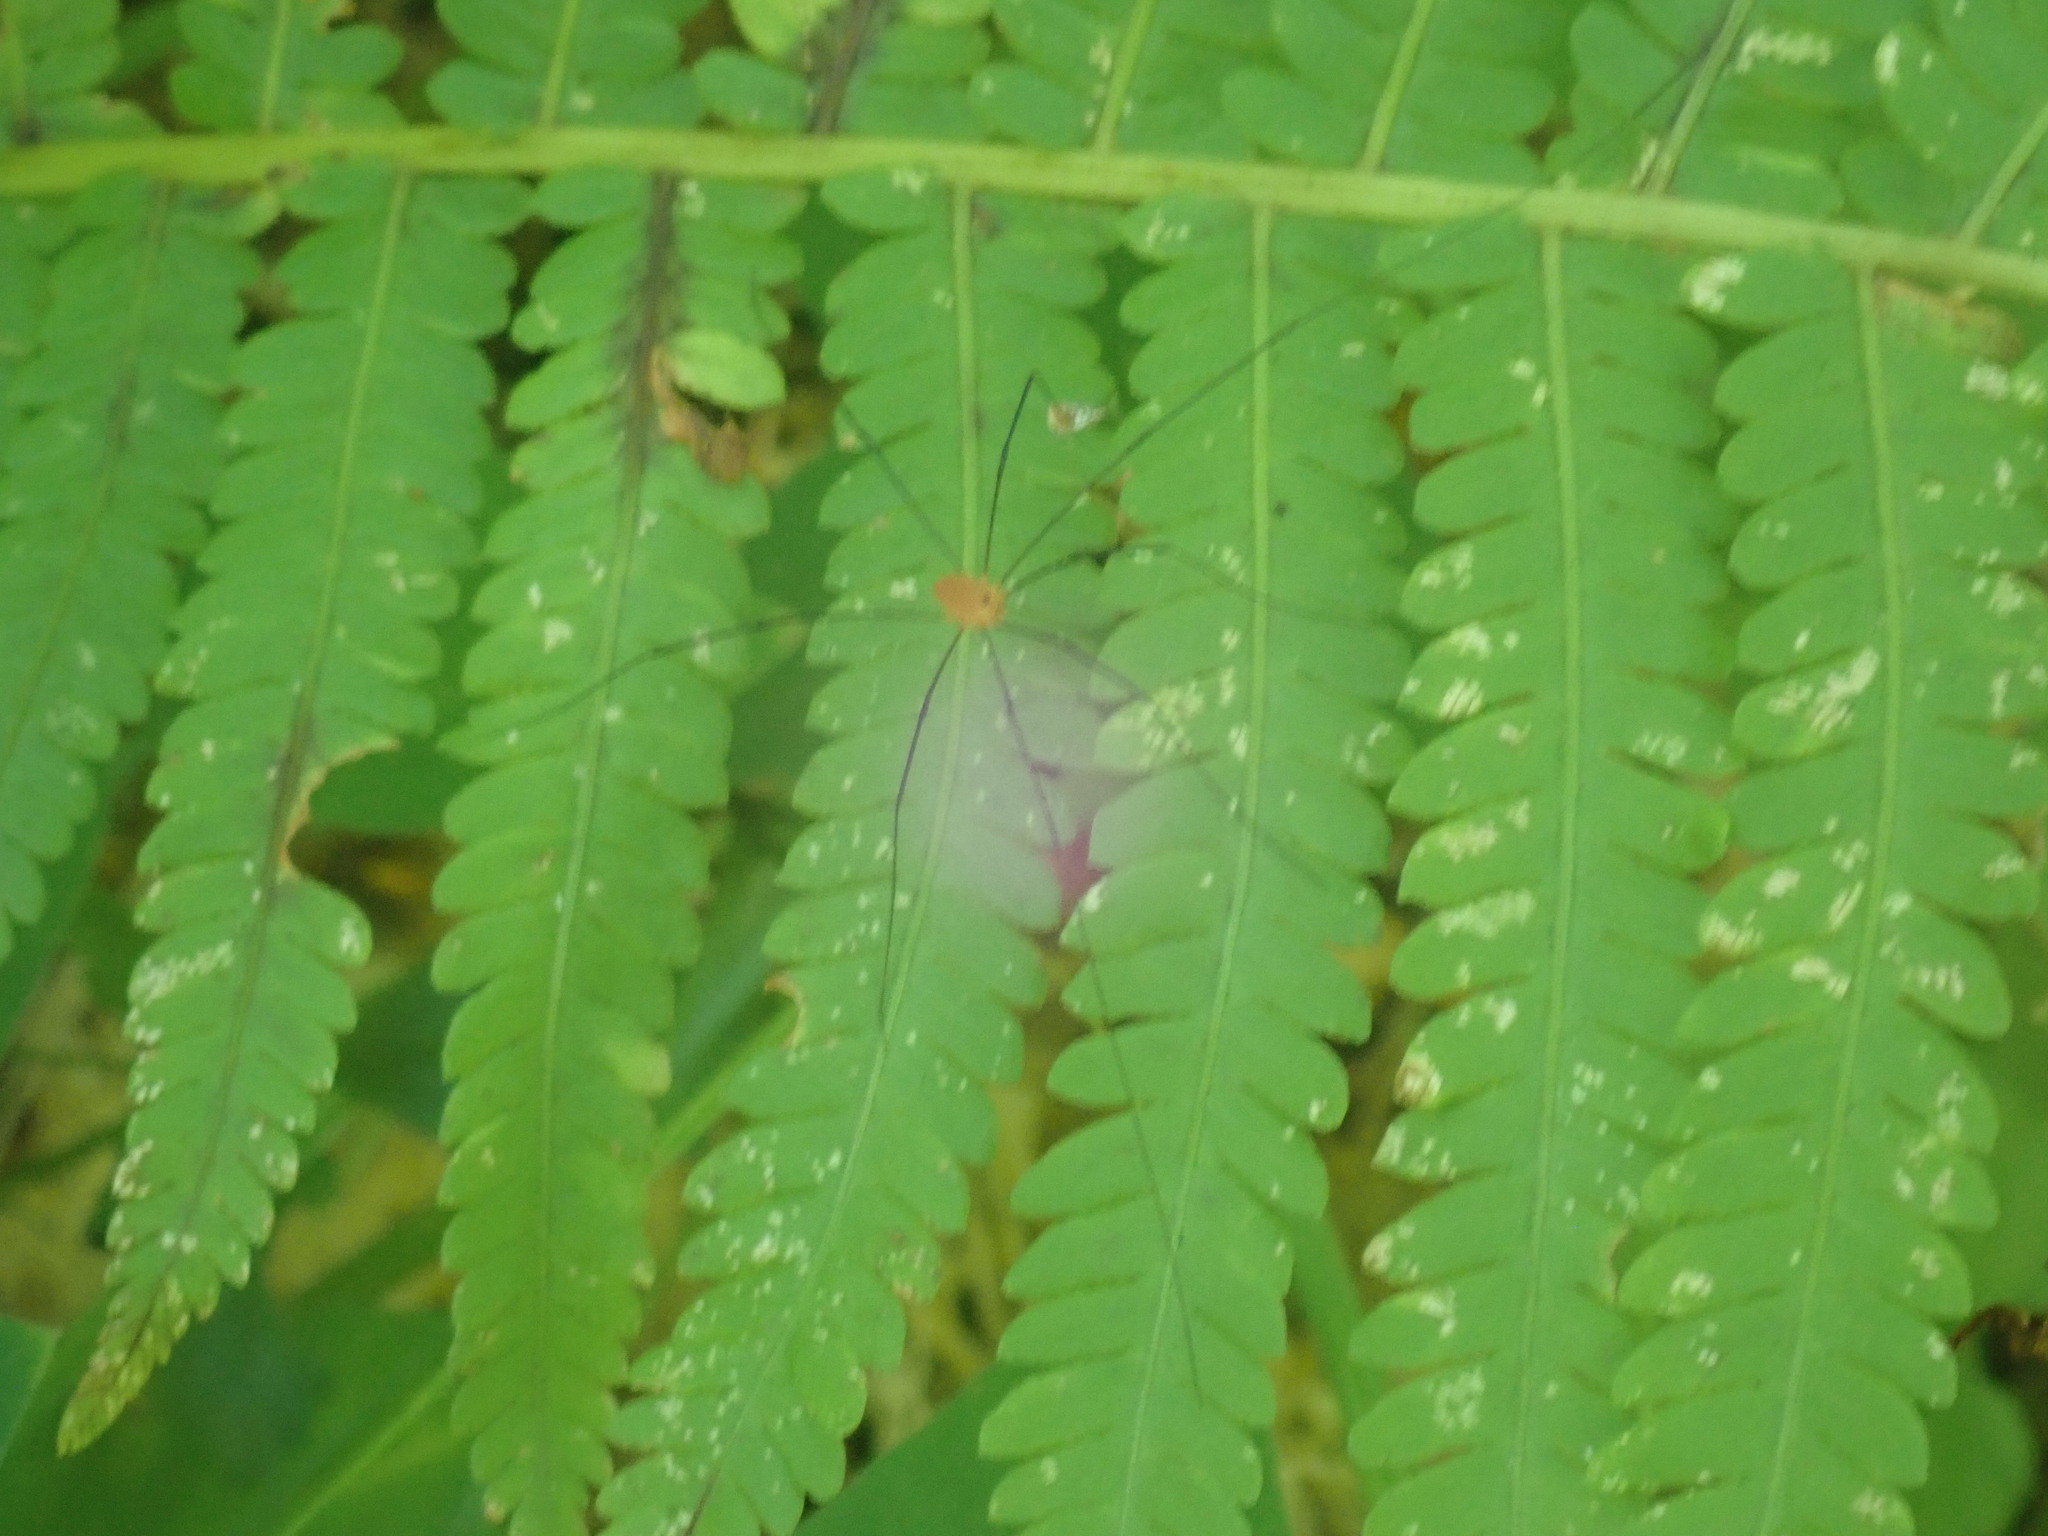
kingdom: Animalia
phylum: Arthropoda
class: Arachnida
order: Opiliones
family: Sclerosomatidae
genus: Leiobunum
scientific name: Leiobunum vittatum
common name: Eastern harvestman
